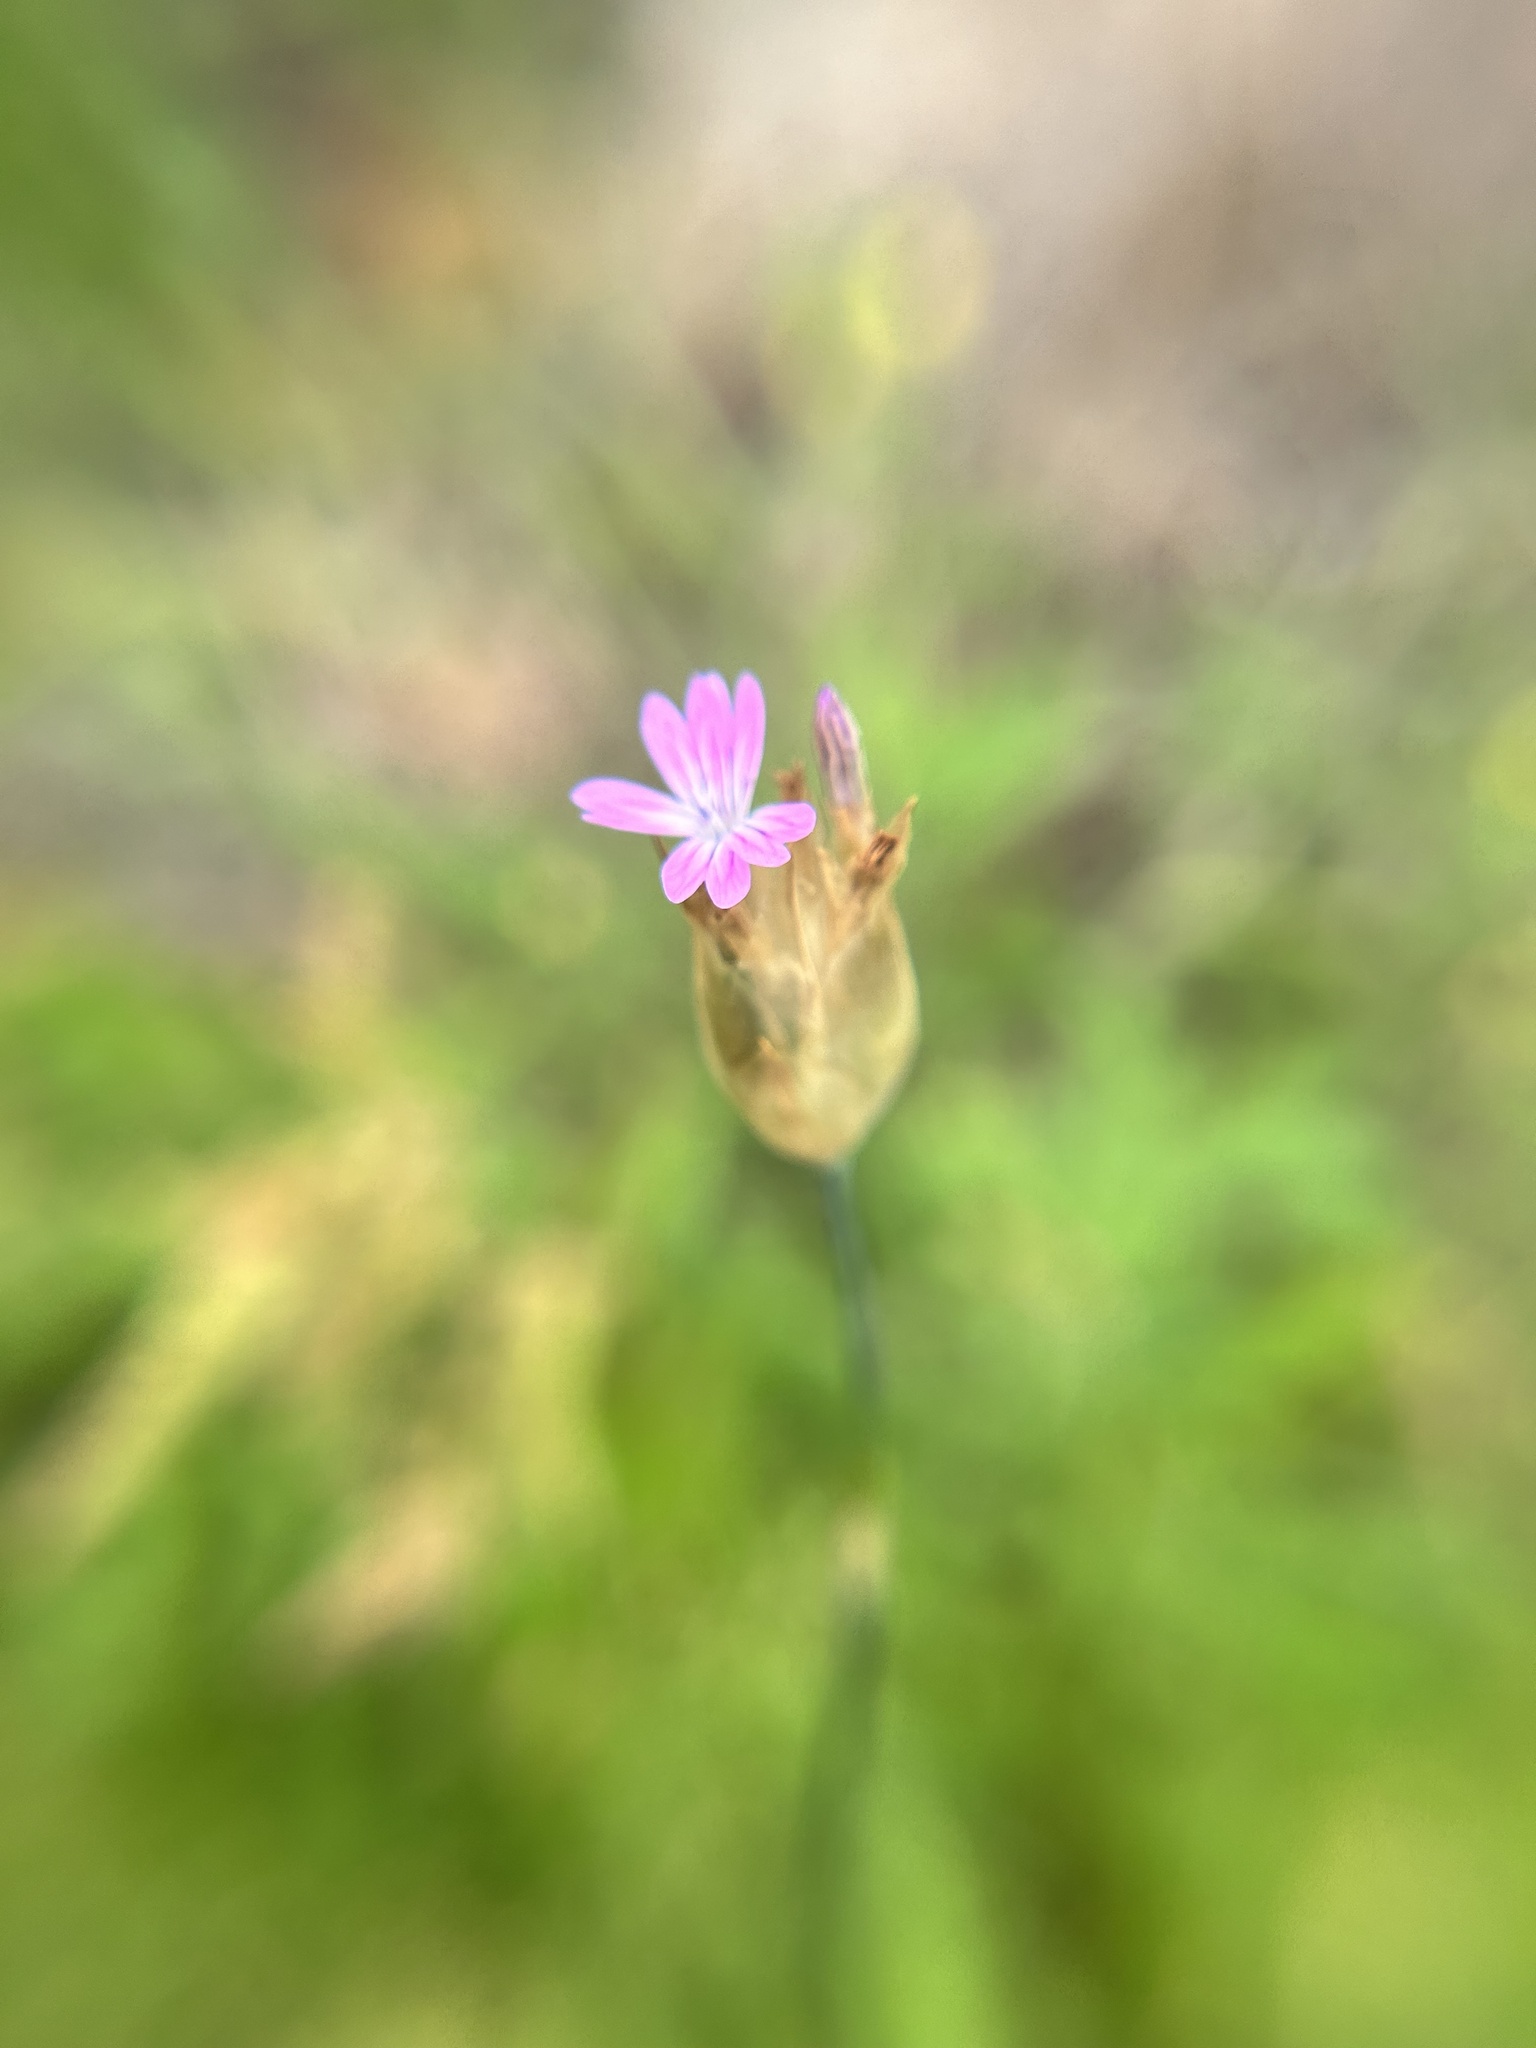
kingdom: Plantae
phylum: Tracheophyta
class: Magnoliopsida
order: Caryophyllales
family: Caryophyllaceae
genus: Petrorhagia
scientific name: Petrorhagia dubia
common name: Hairypink
